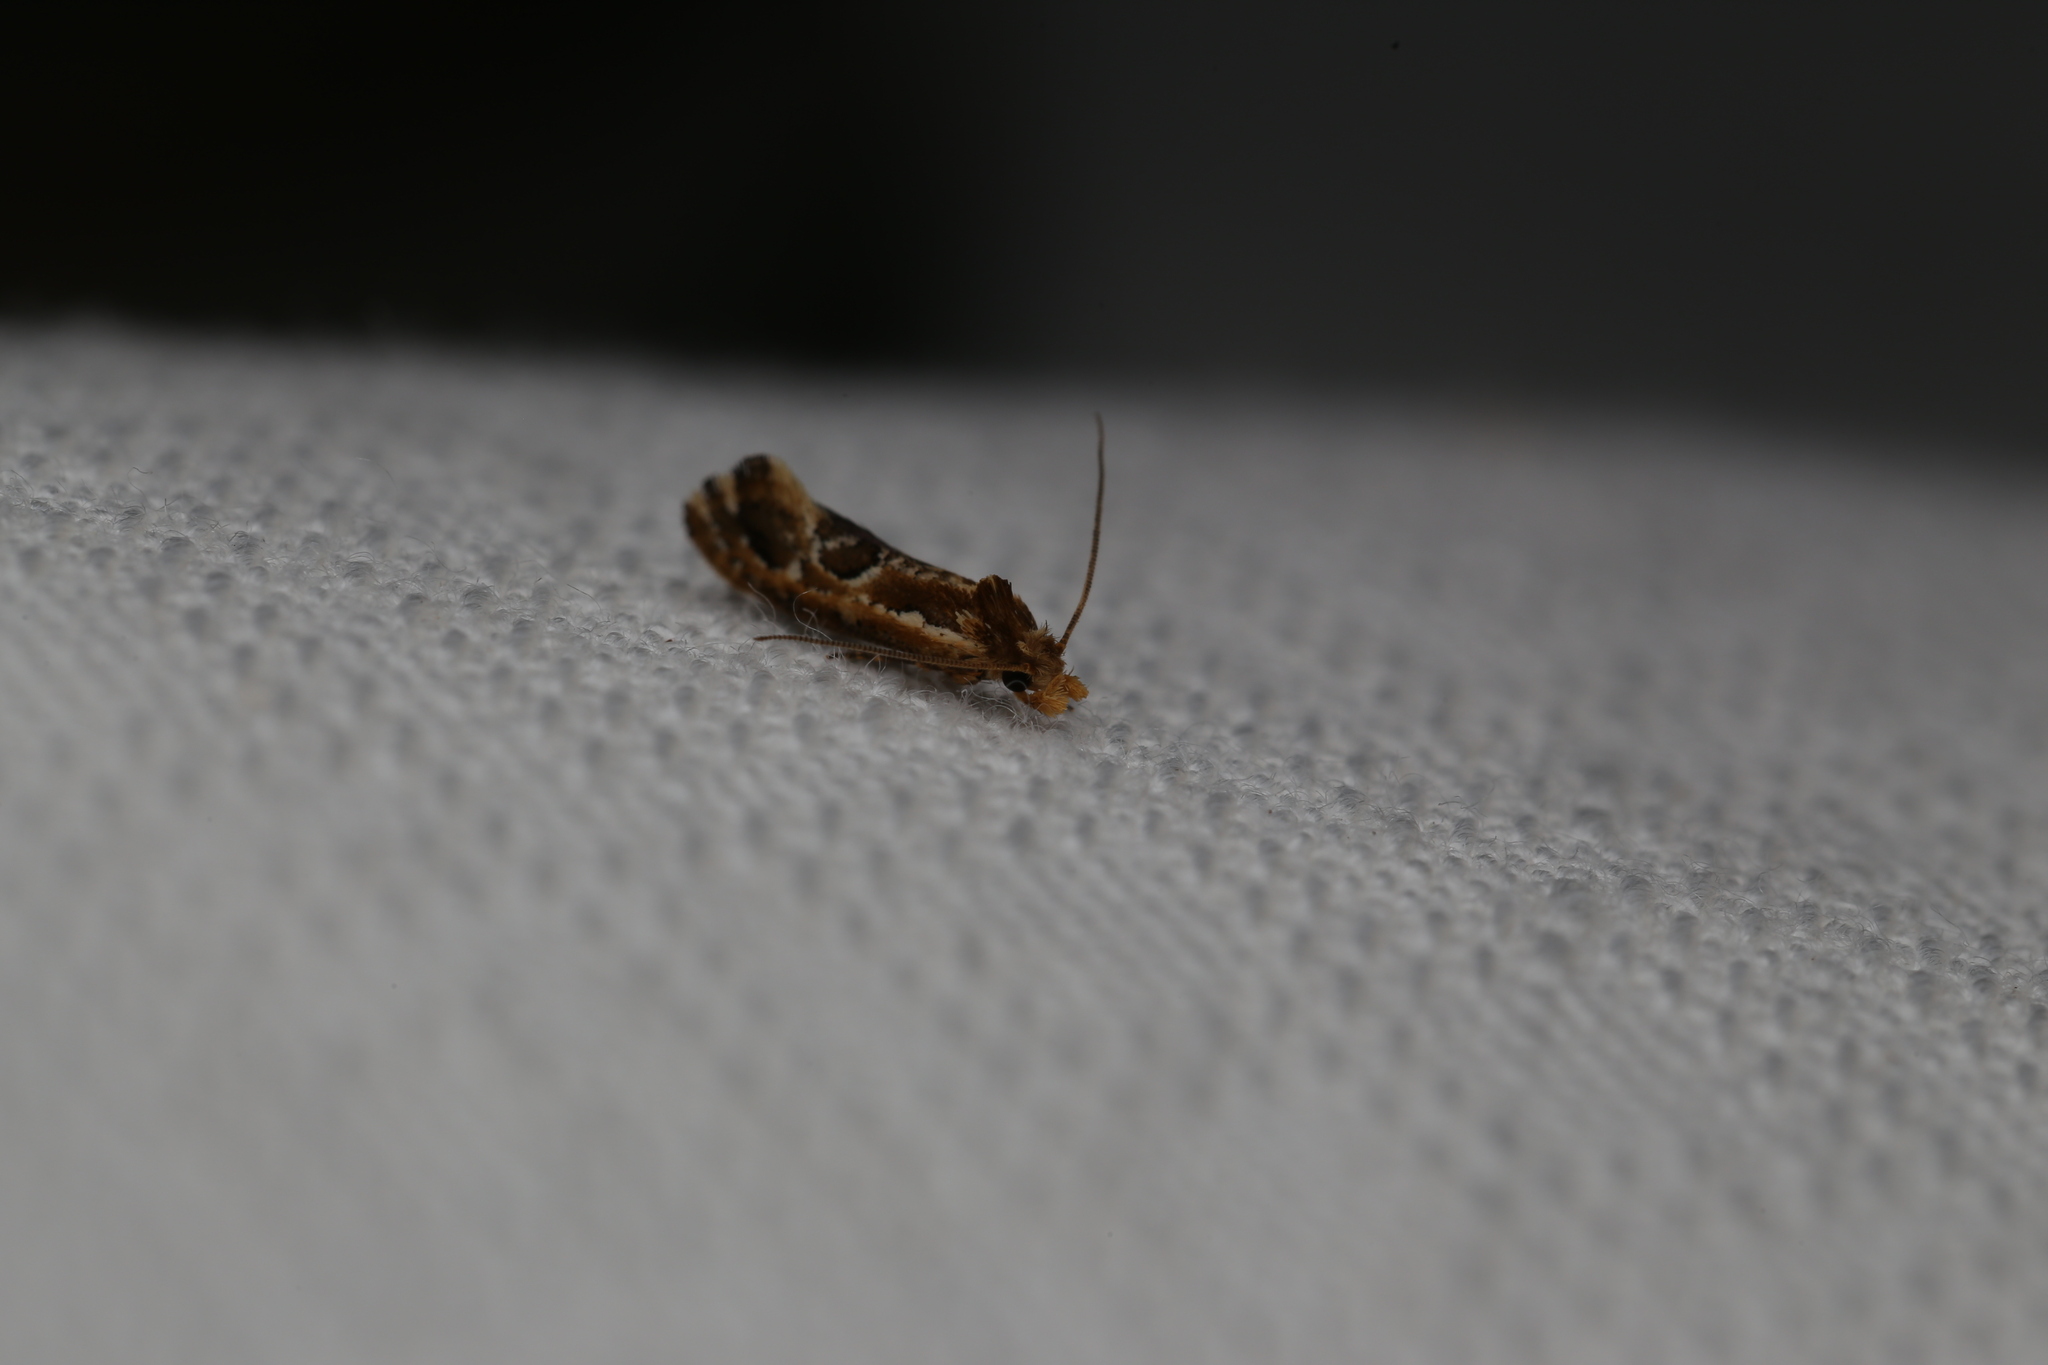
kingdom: Animalia
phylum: Arthropoda
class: Insecta
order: Lepidoptera
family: Tineidae
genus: Moerarchis
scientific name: Moerarchis inconcisella
